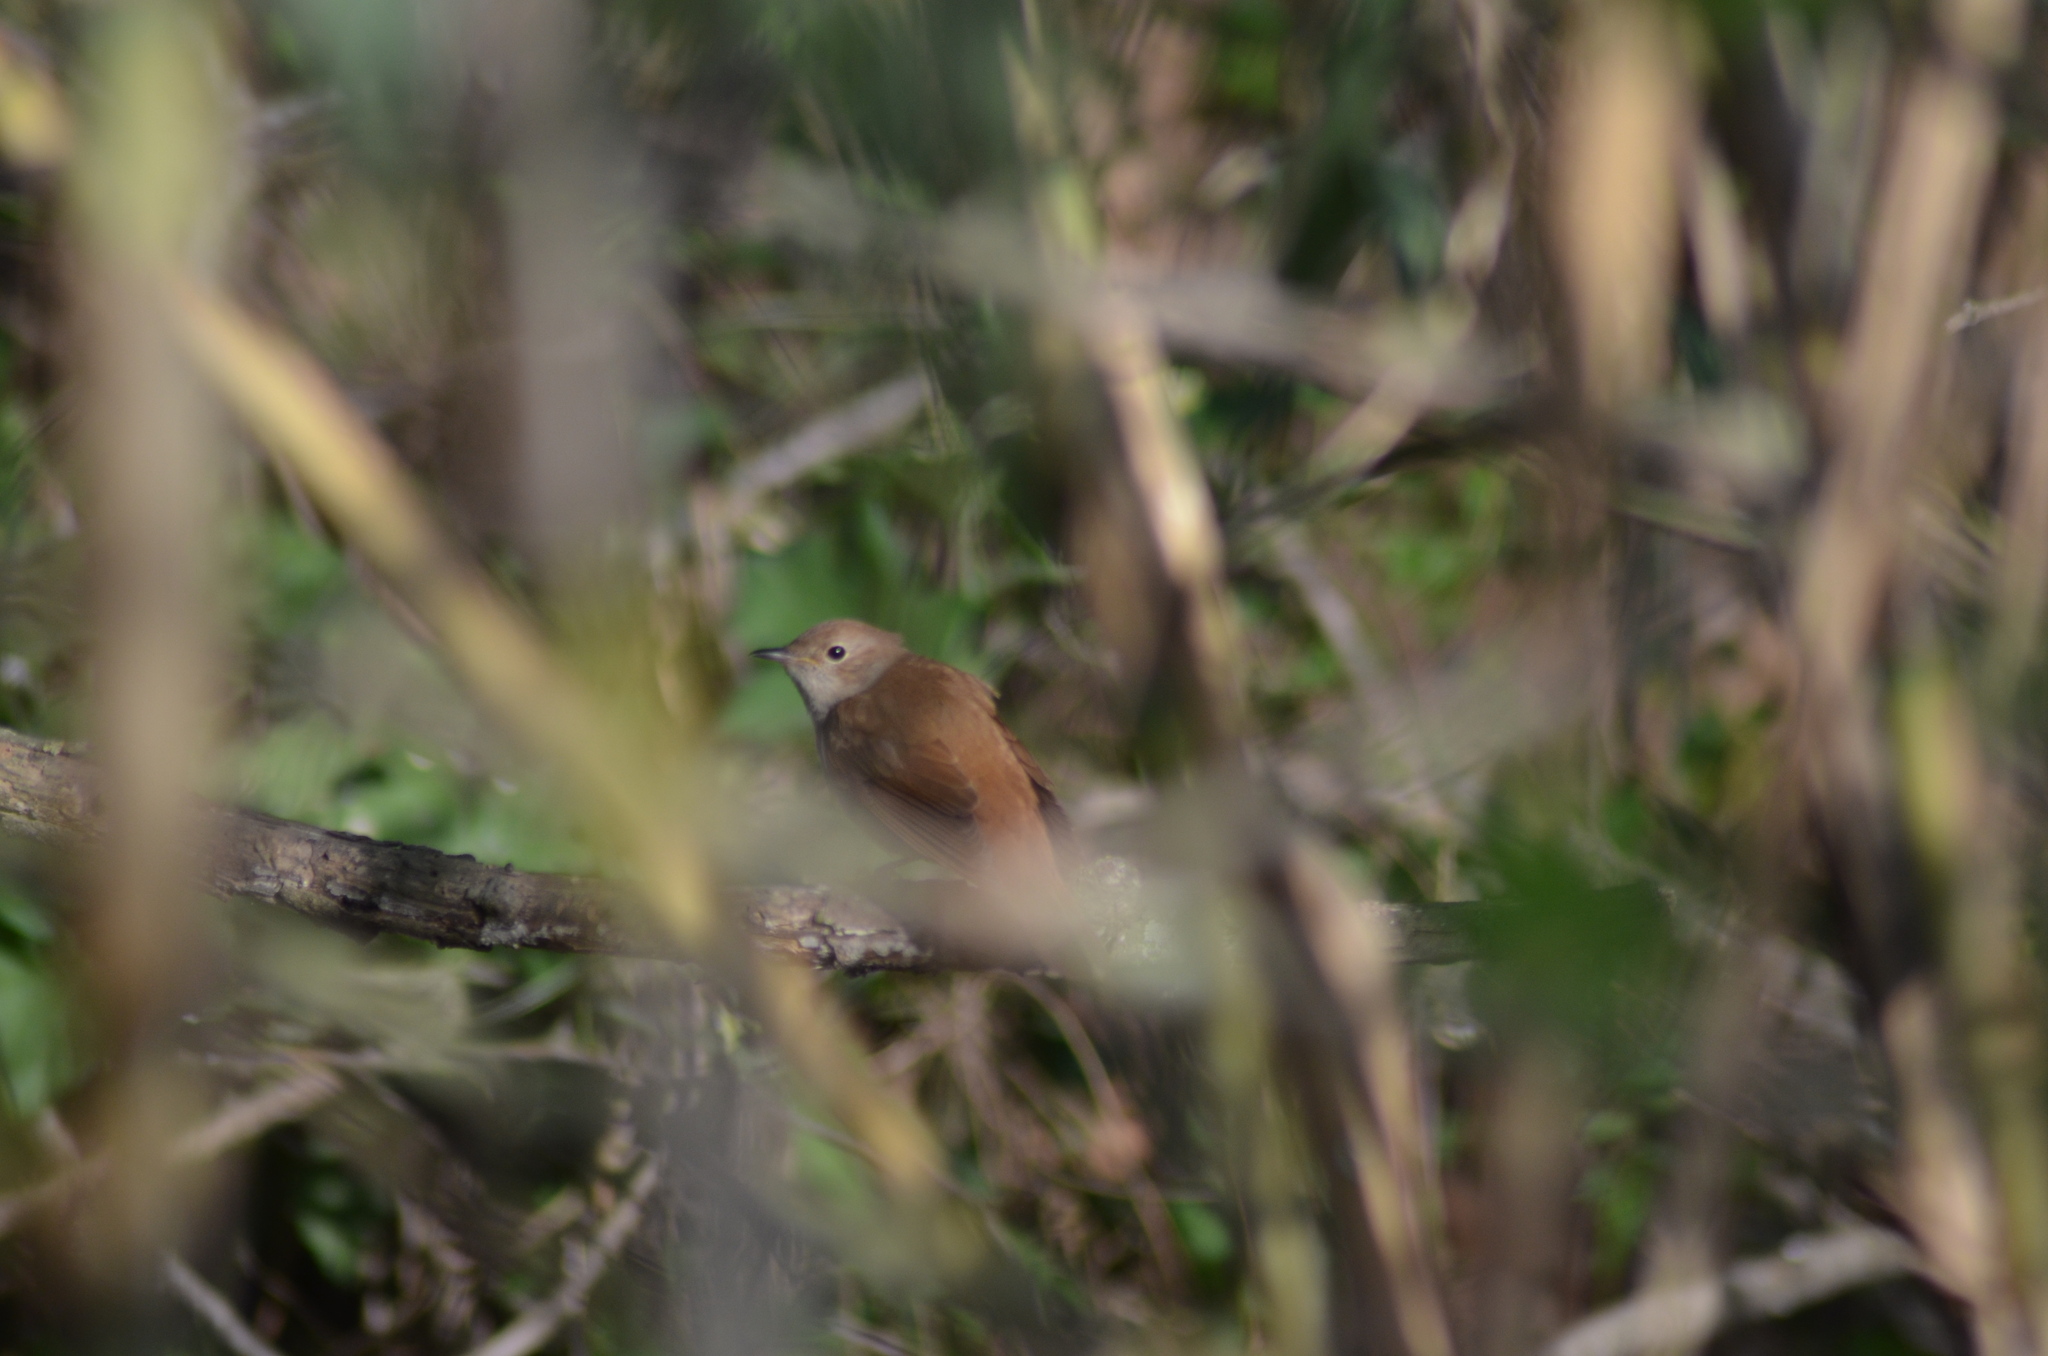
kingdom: Animalia
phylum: Chordata
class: Aves
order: Passeriformes
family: Muscicapidae
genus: Luscinia
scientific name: Luscinia megarhynchos
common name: Common nightingale
